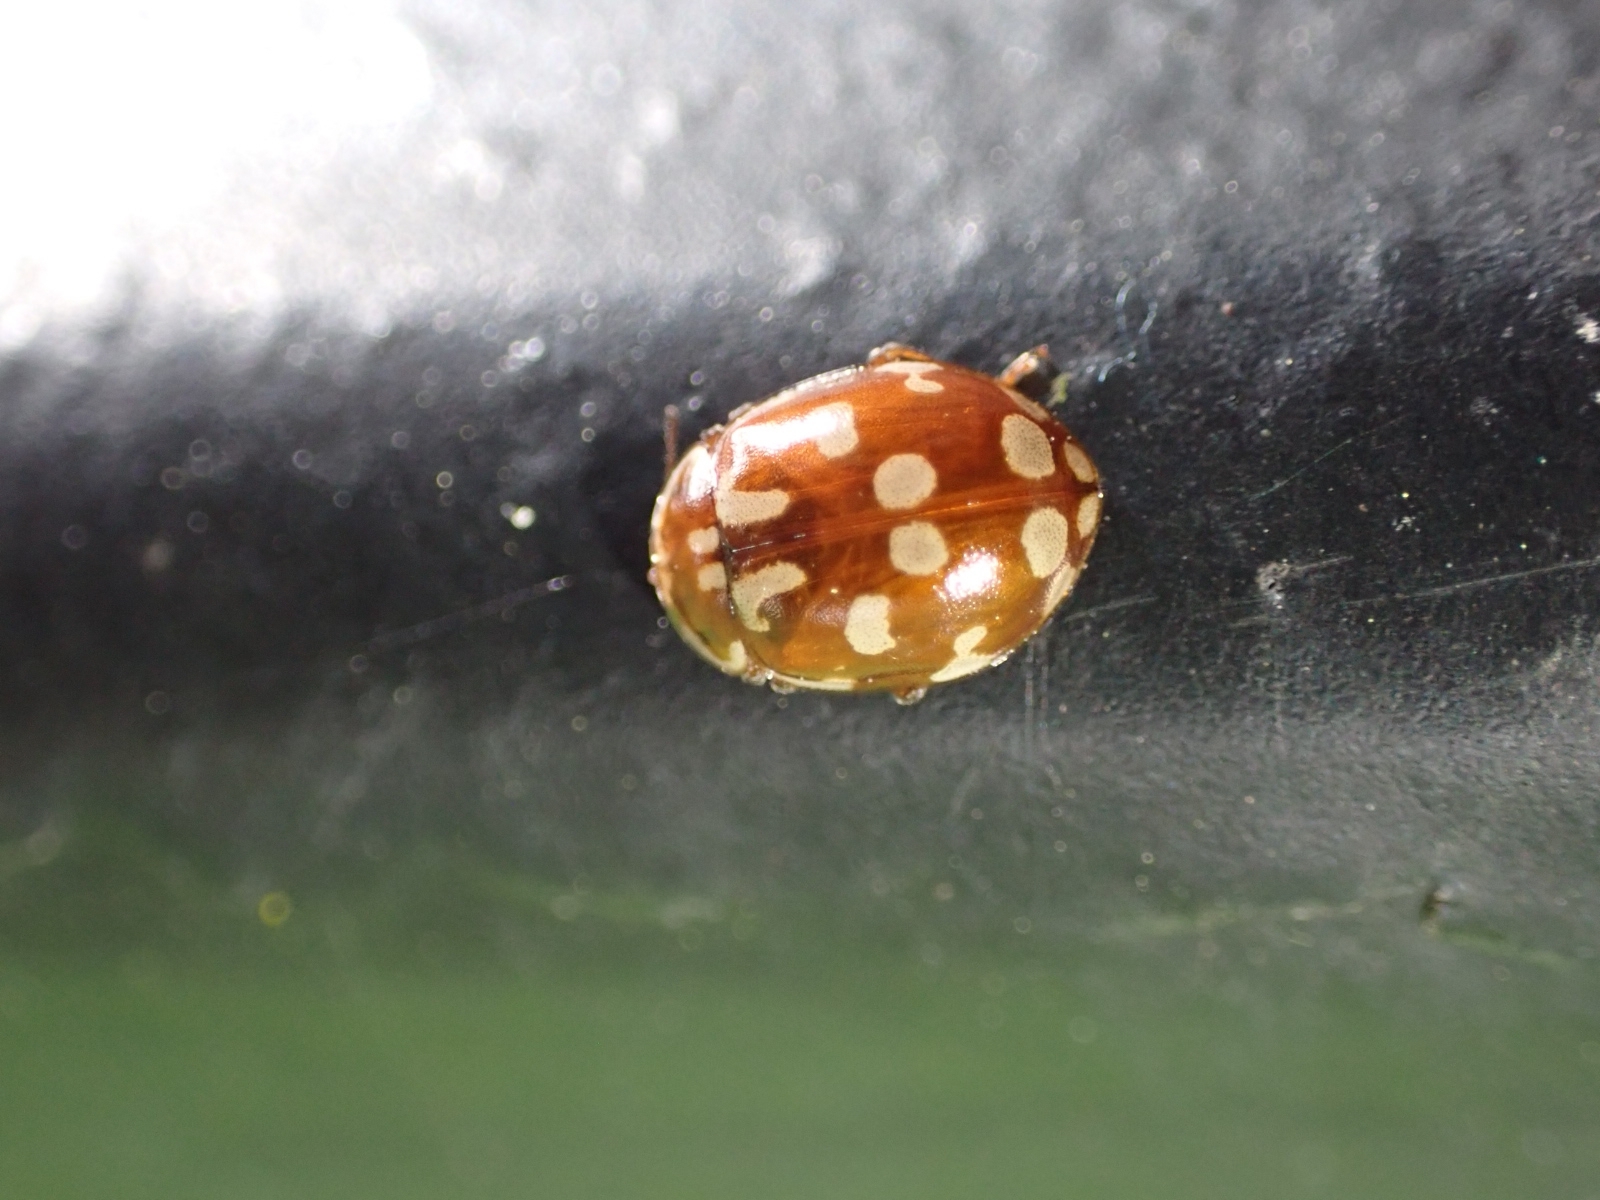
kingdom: Animalia
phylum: Arthropoda
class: Insecta
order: Coleoptera
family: Coccinellidae
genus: Myrrha
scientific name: Myrrha octodecimguttata
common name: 18-spot ladybird
